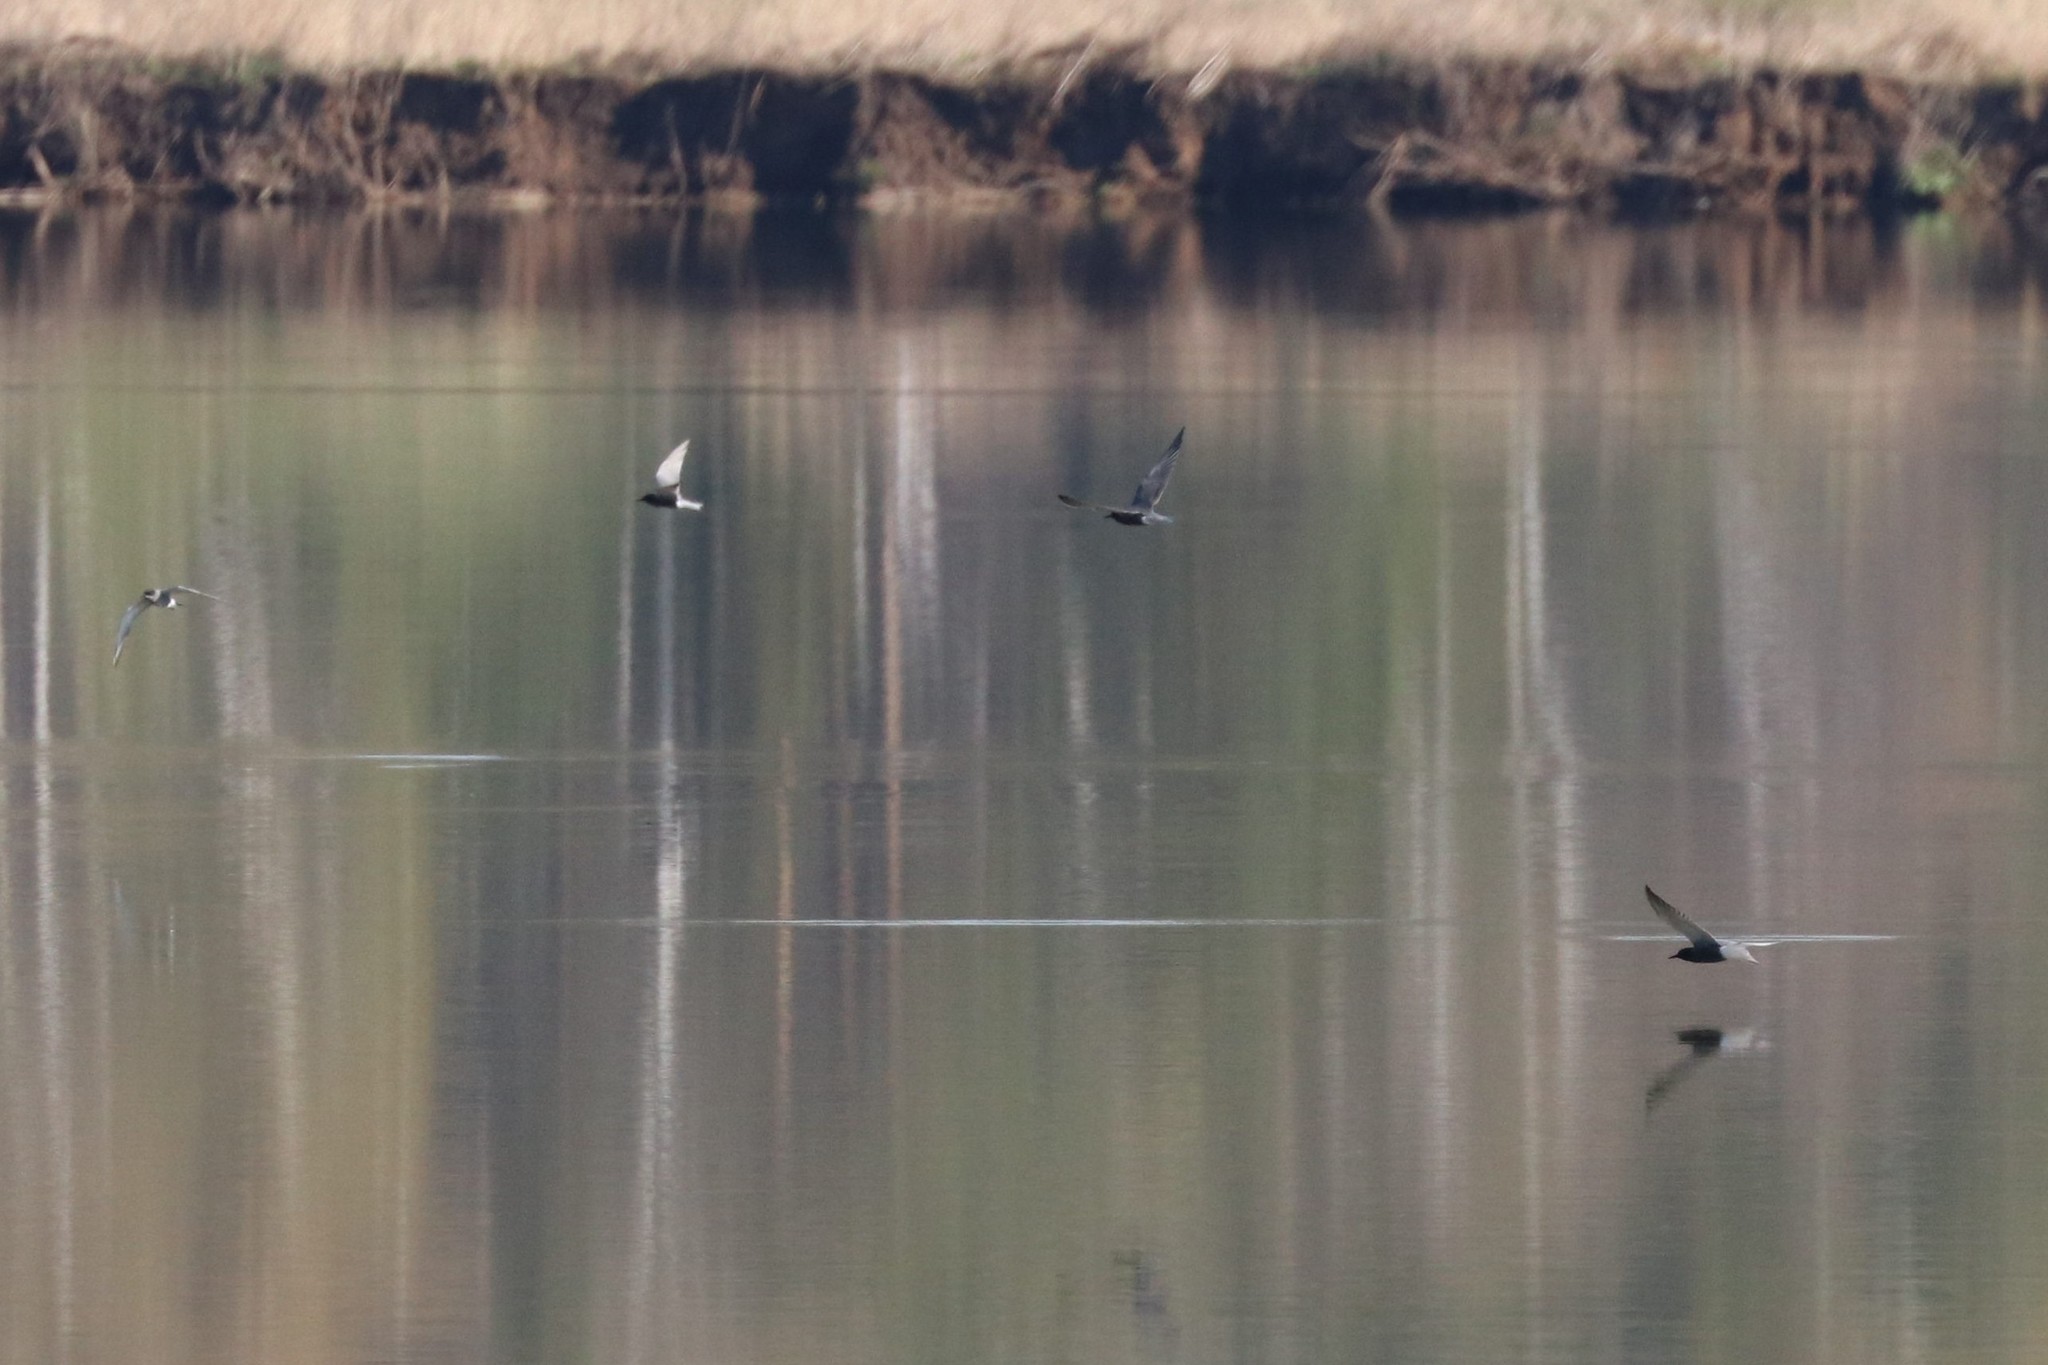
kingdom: Animalia
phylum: Chordata
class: Aves
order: Charadriiformes
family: Laridae
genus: Chlidonias
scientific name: Chlidonias niger
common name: Black tern
